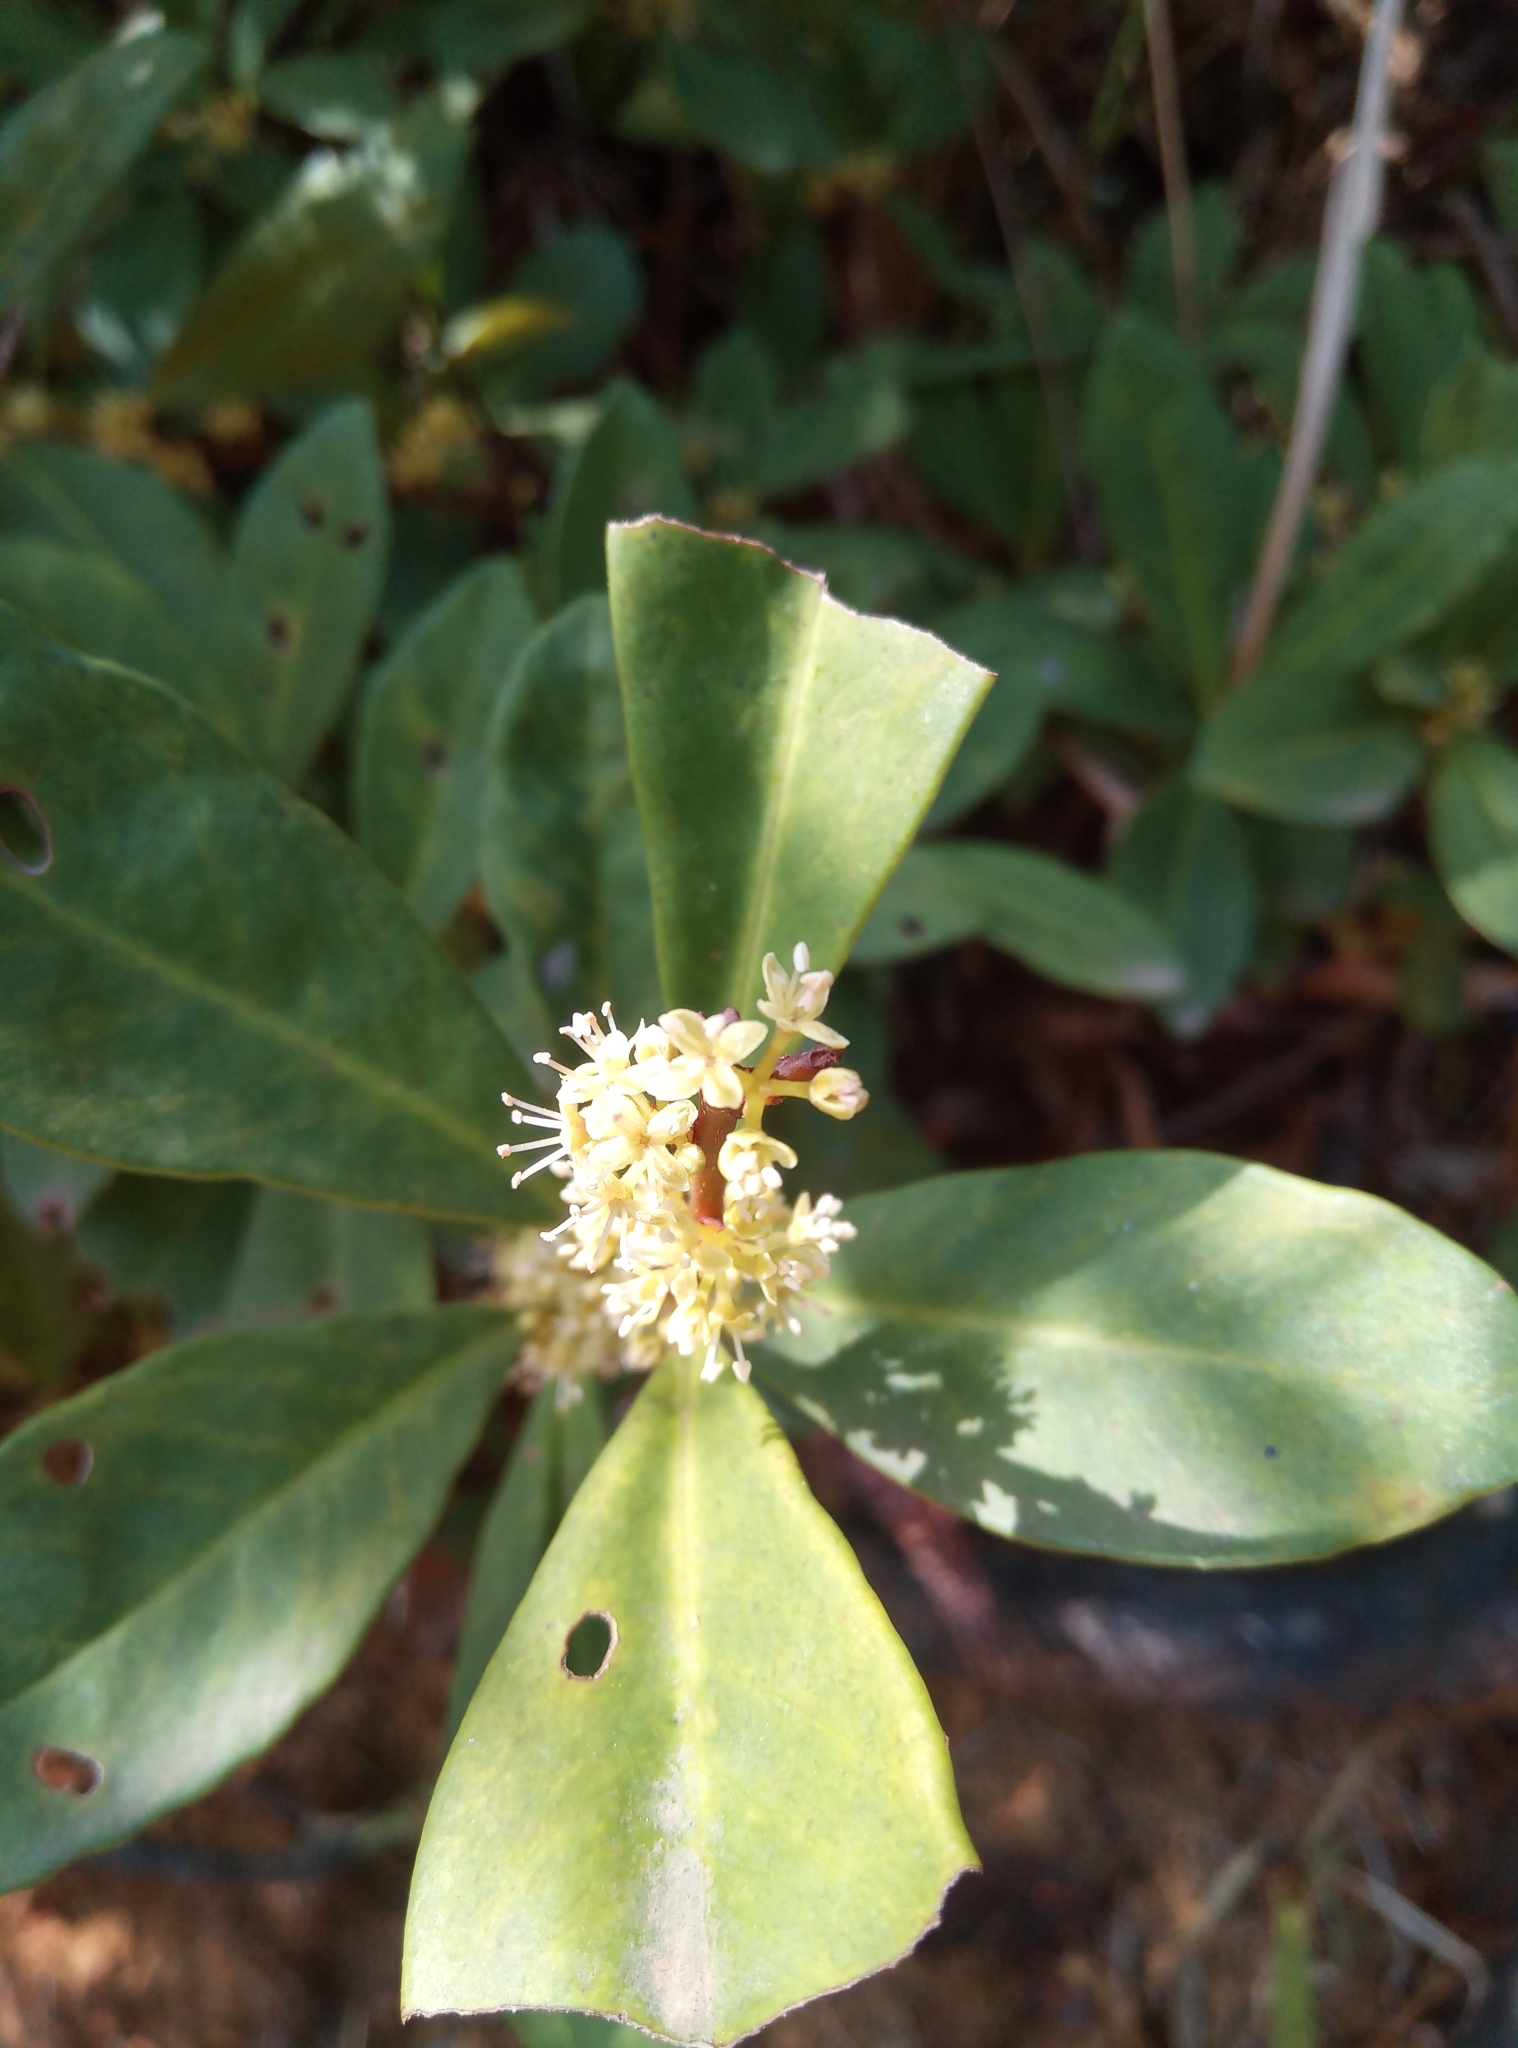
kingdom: Plantae
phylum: Tracheophyta
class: Magnoliopsida
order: Gentianales
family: Rubiaceae
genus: Diplospora
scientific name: Diplospora dubia
